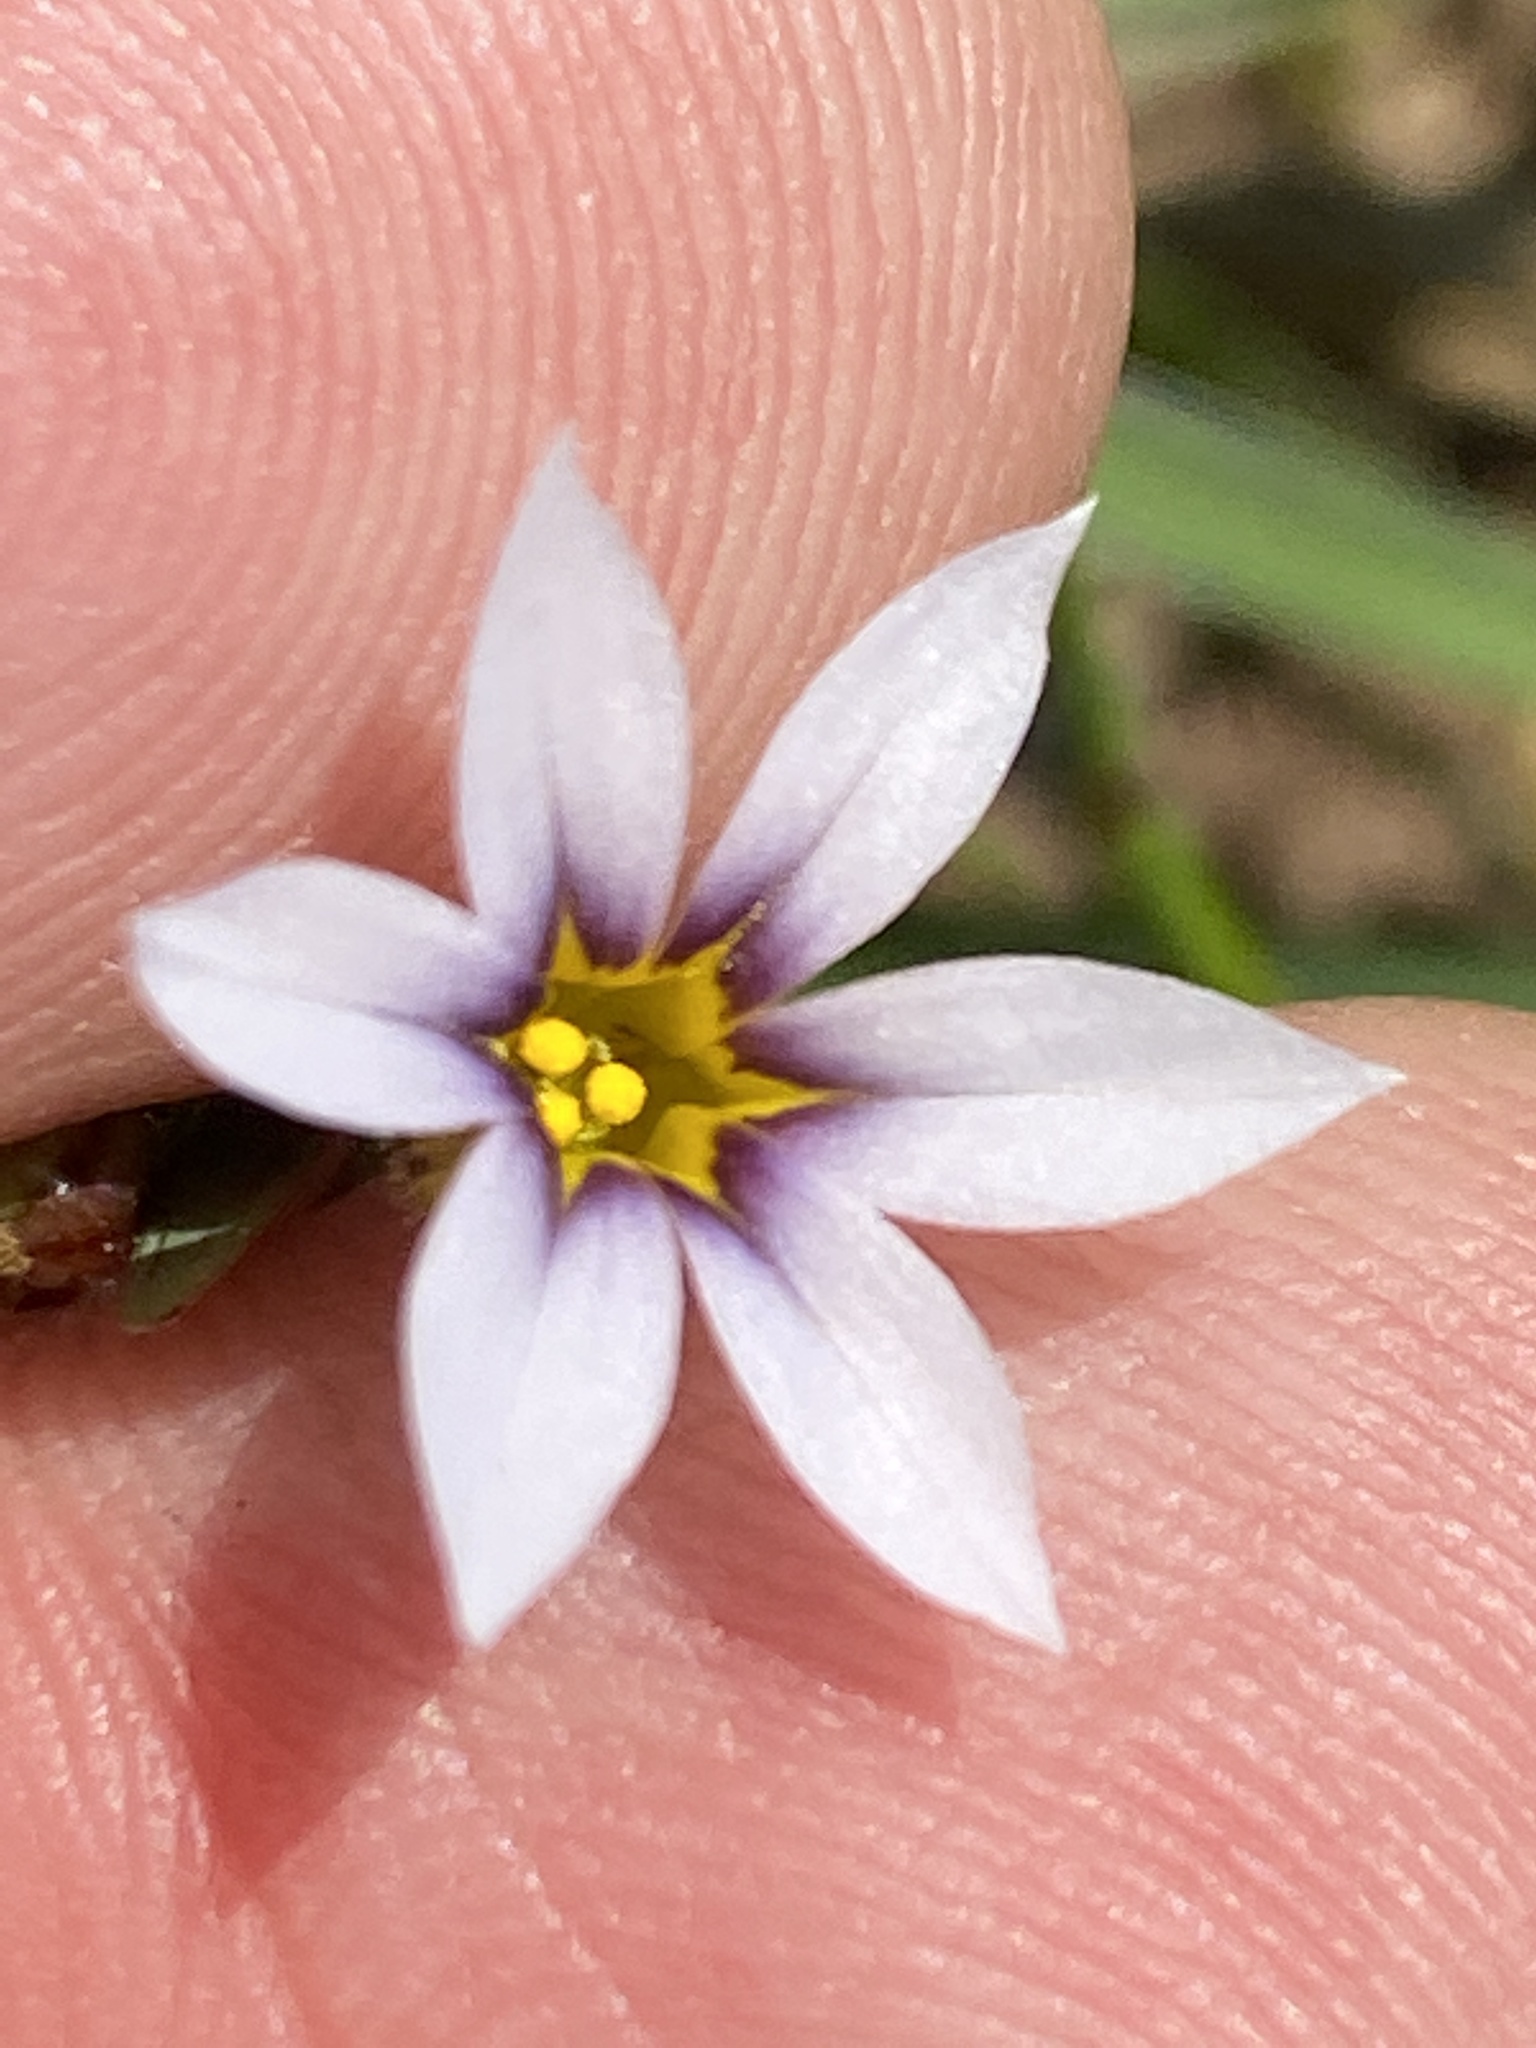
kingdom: Plantae
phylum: Tracheophyta
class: Liliopsida
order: Asparagales
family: Iridaceae
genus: Sisyrinchium
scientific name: Sisyrinchium micranthum
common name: Bermuda pigroot
